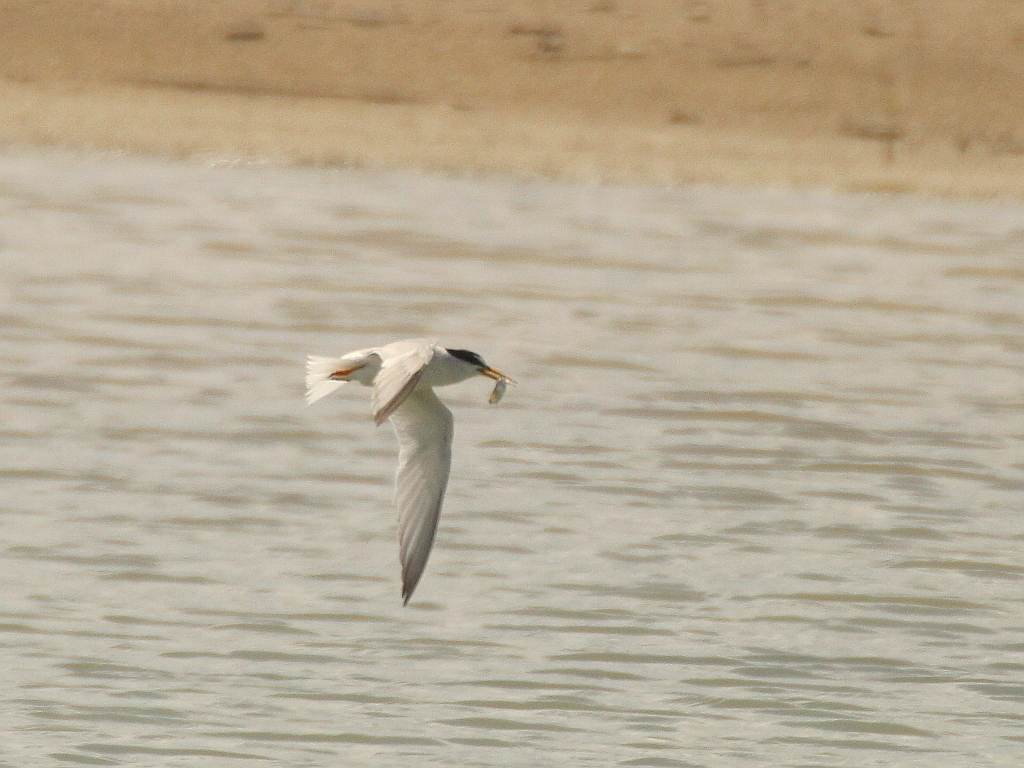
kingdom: Animalia
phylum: Chordata
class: Aves
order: Charadriiformes
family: Laridae
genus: Sternula
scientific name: Sternula albifrons
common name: Little tern
